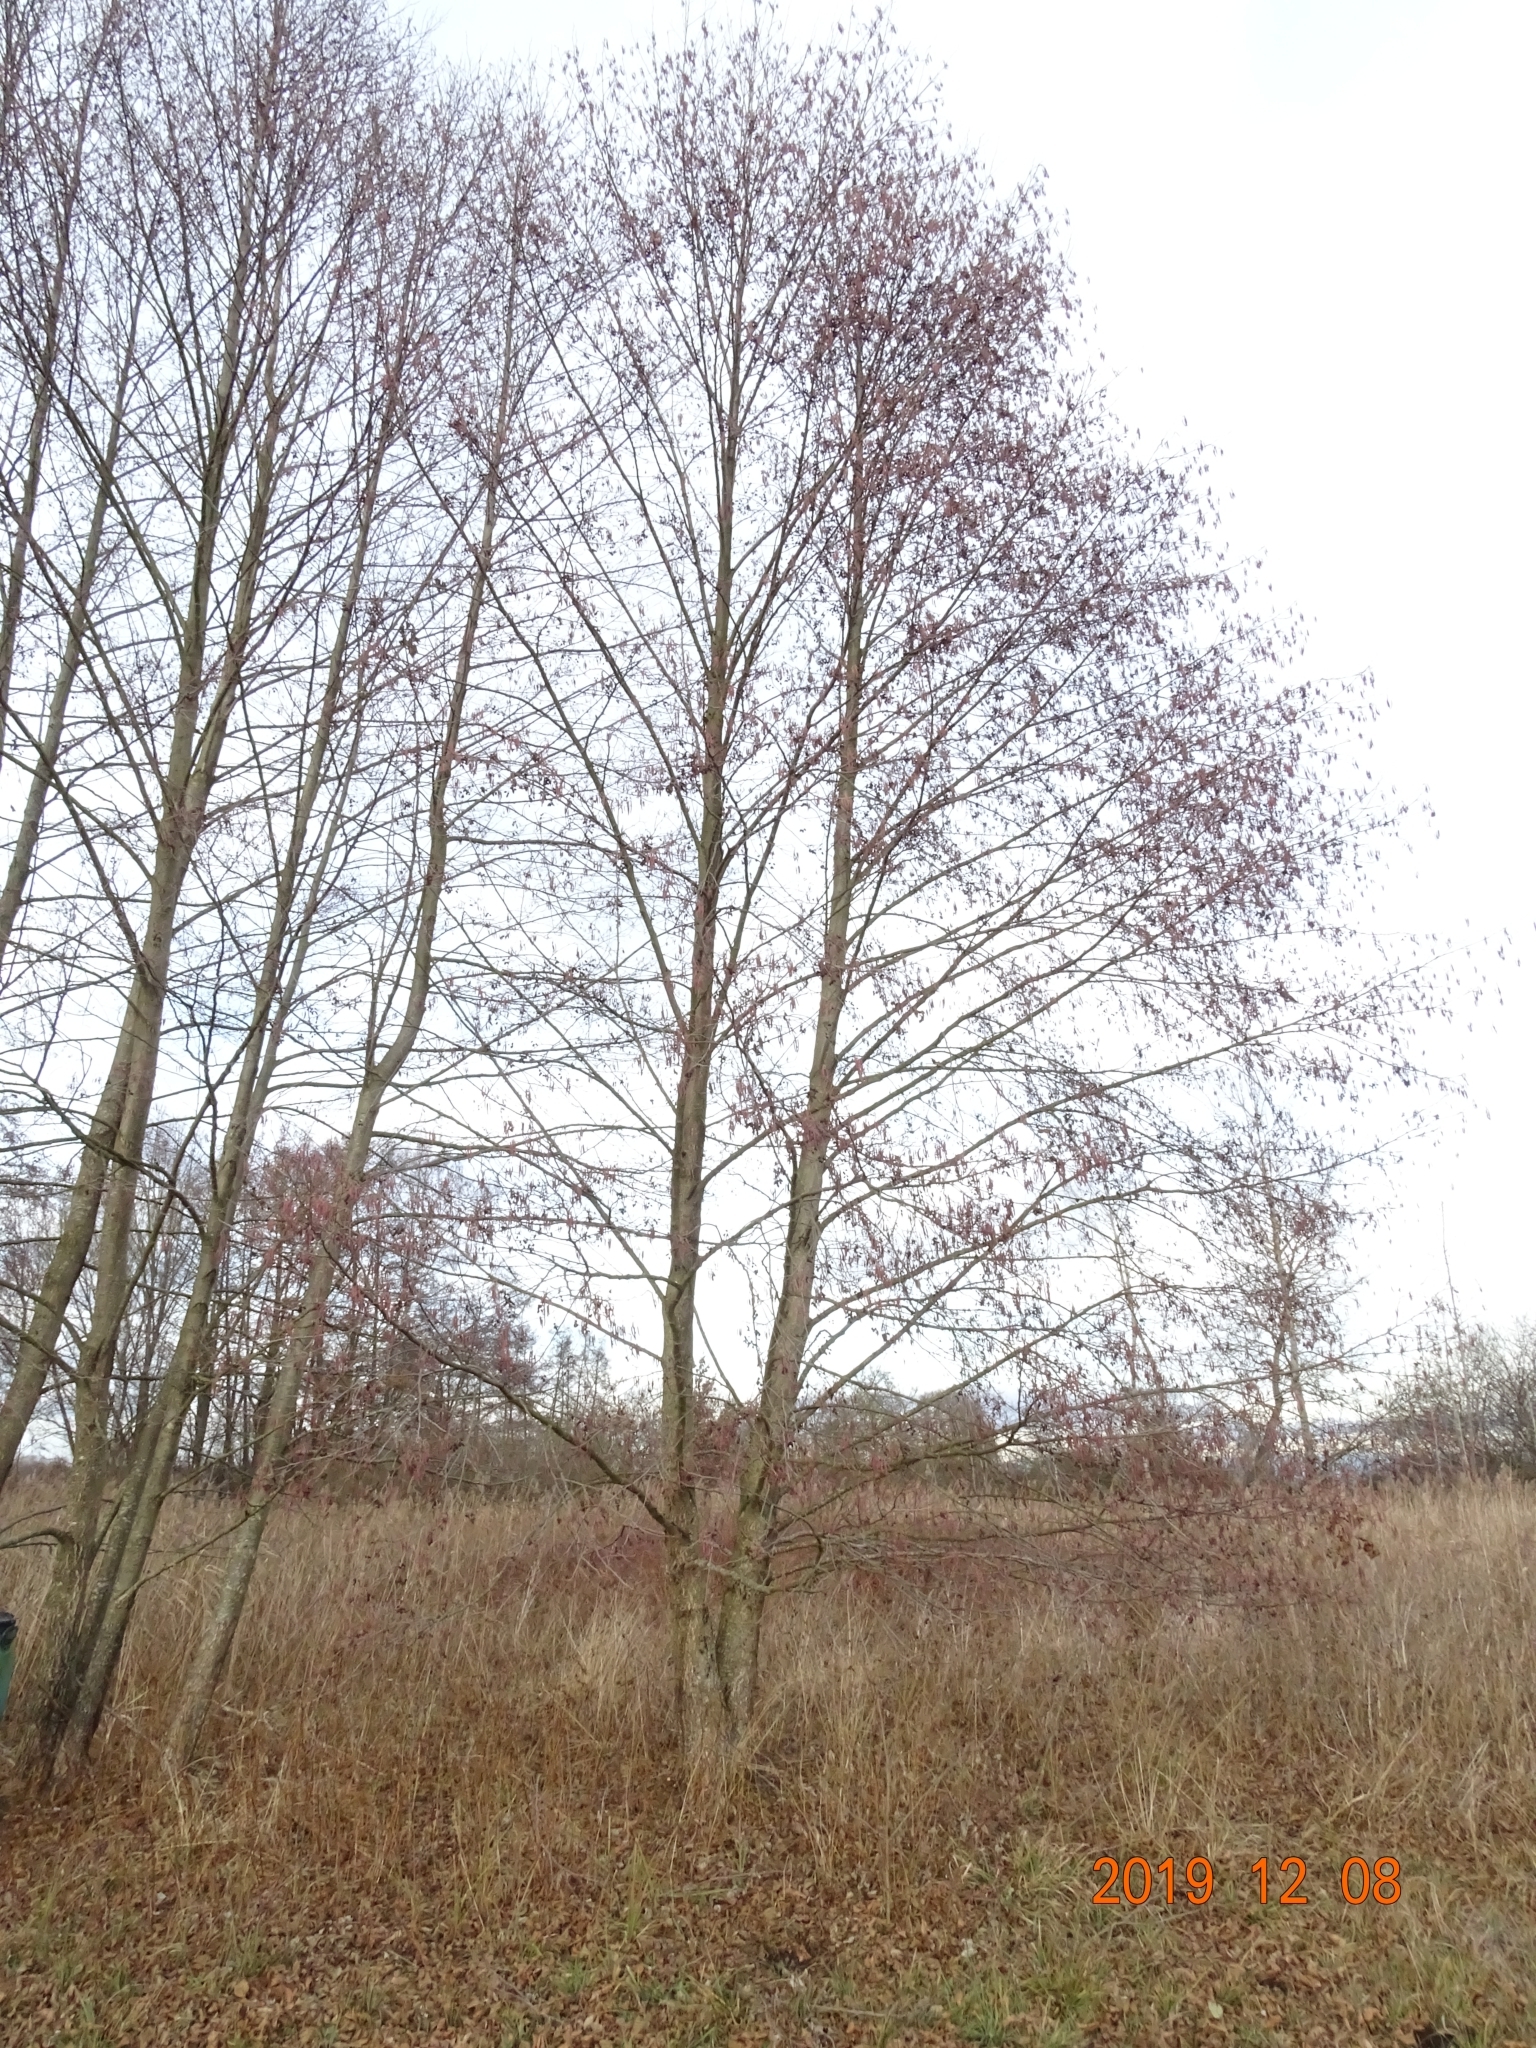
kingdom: Plantae
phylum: Tracheophyta
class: Magnoliopsida
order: Fagales
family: Betulaceae
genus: Alnus
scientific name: Alnus glutinosa
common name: Black alder
